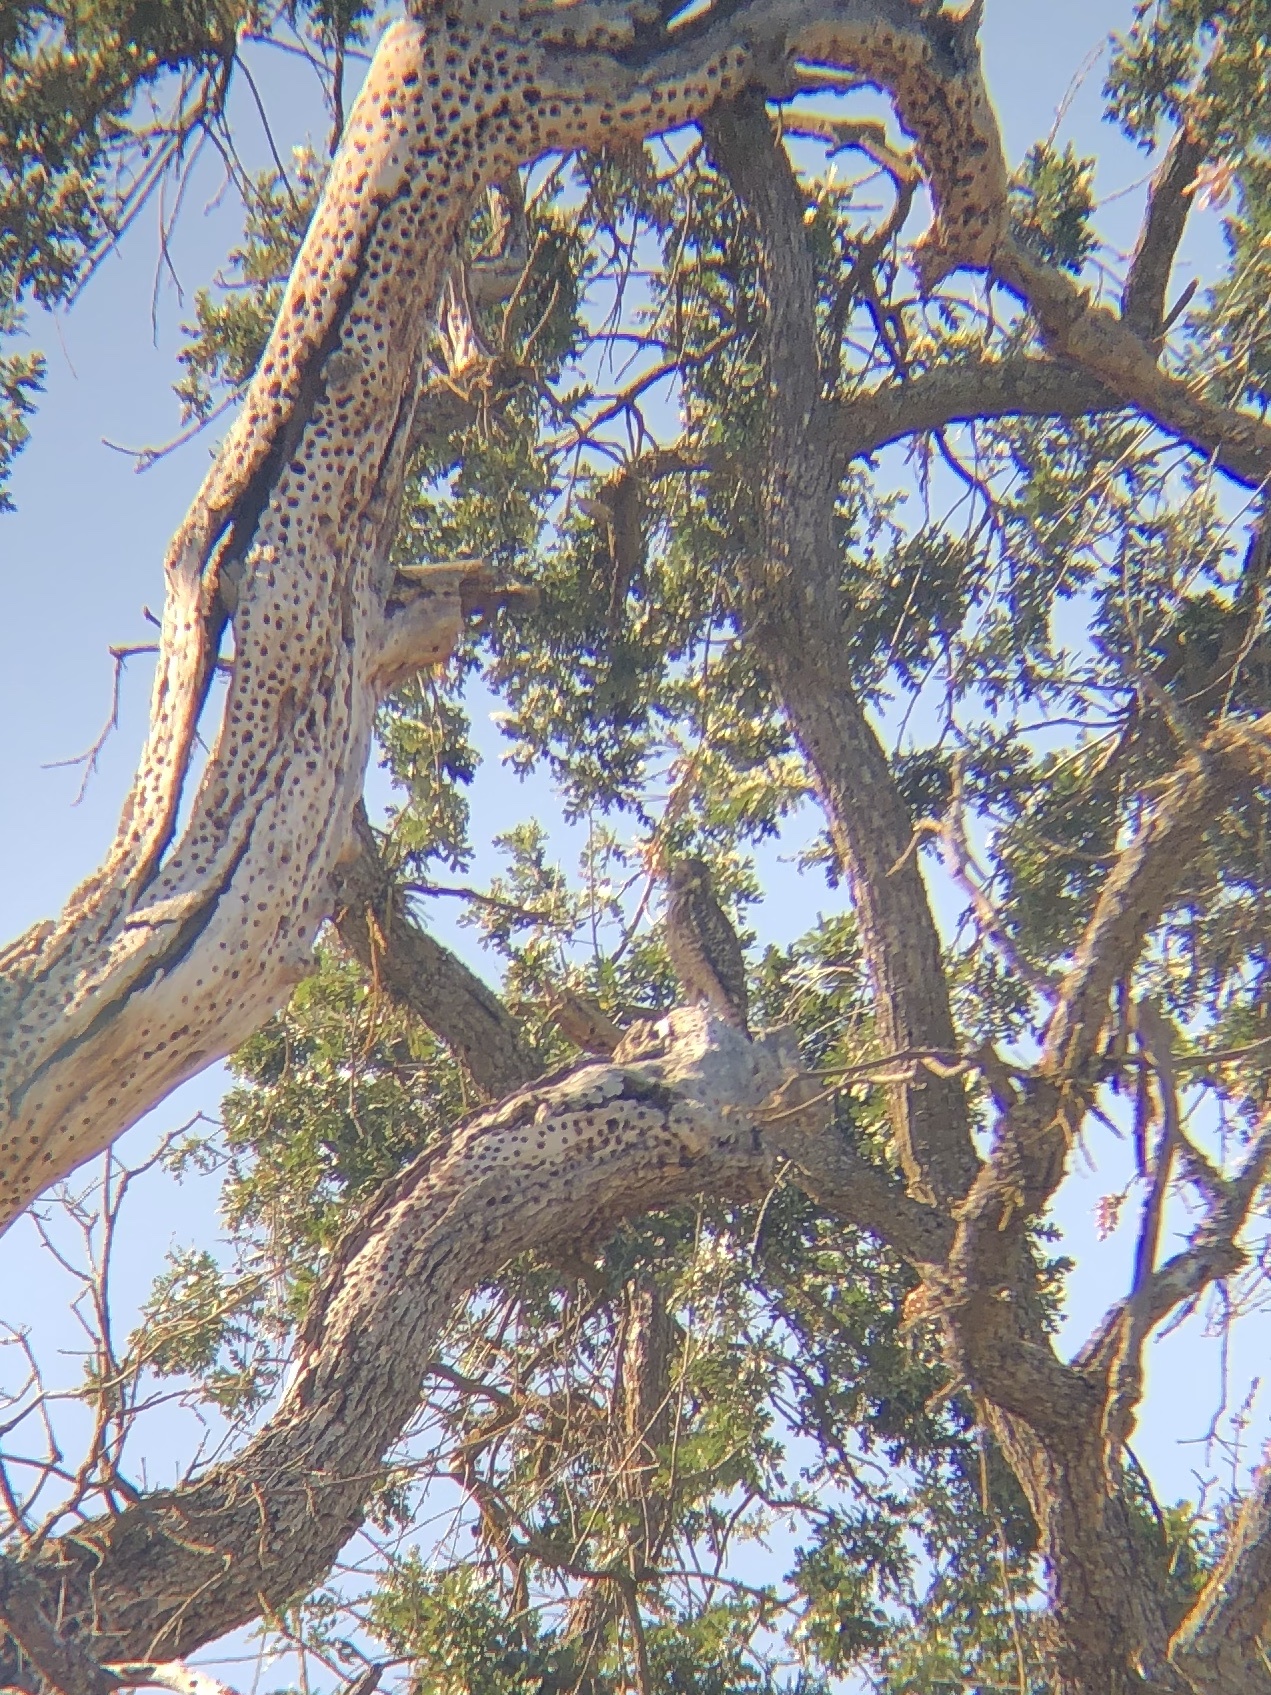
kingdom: Animalia
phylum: Chordata
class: Aves
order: Accipitriformes
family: Accipitridae
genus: Buteo
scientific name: Buteo lineatus
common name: Red-shouldered hawk
